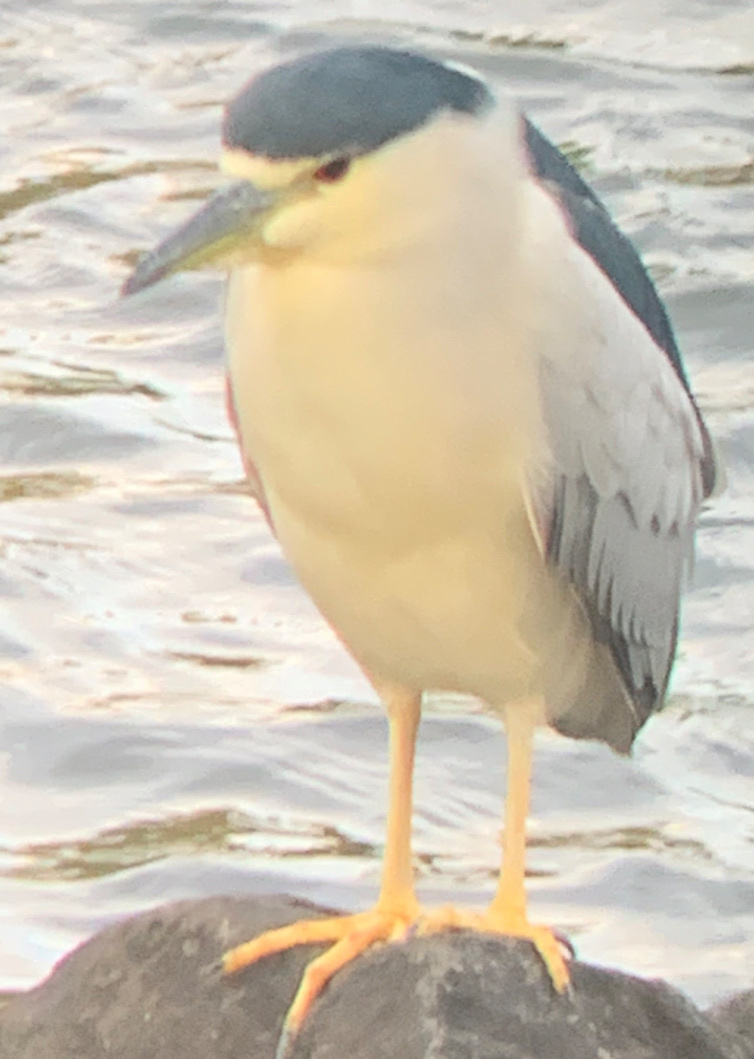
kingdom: Animalia
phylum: Chordata
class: Aves
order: Pelecaniformes
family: Ardeidae
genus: Nycticorax
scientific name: Nycticorax nycticorax
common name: Black-crowned night heron
